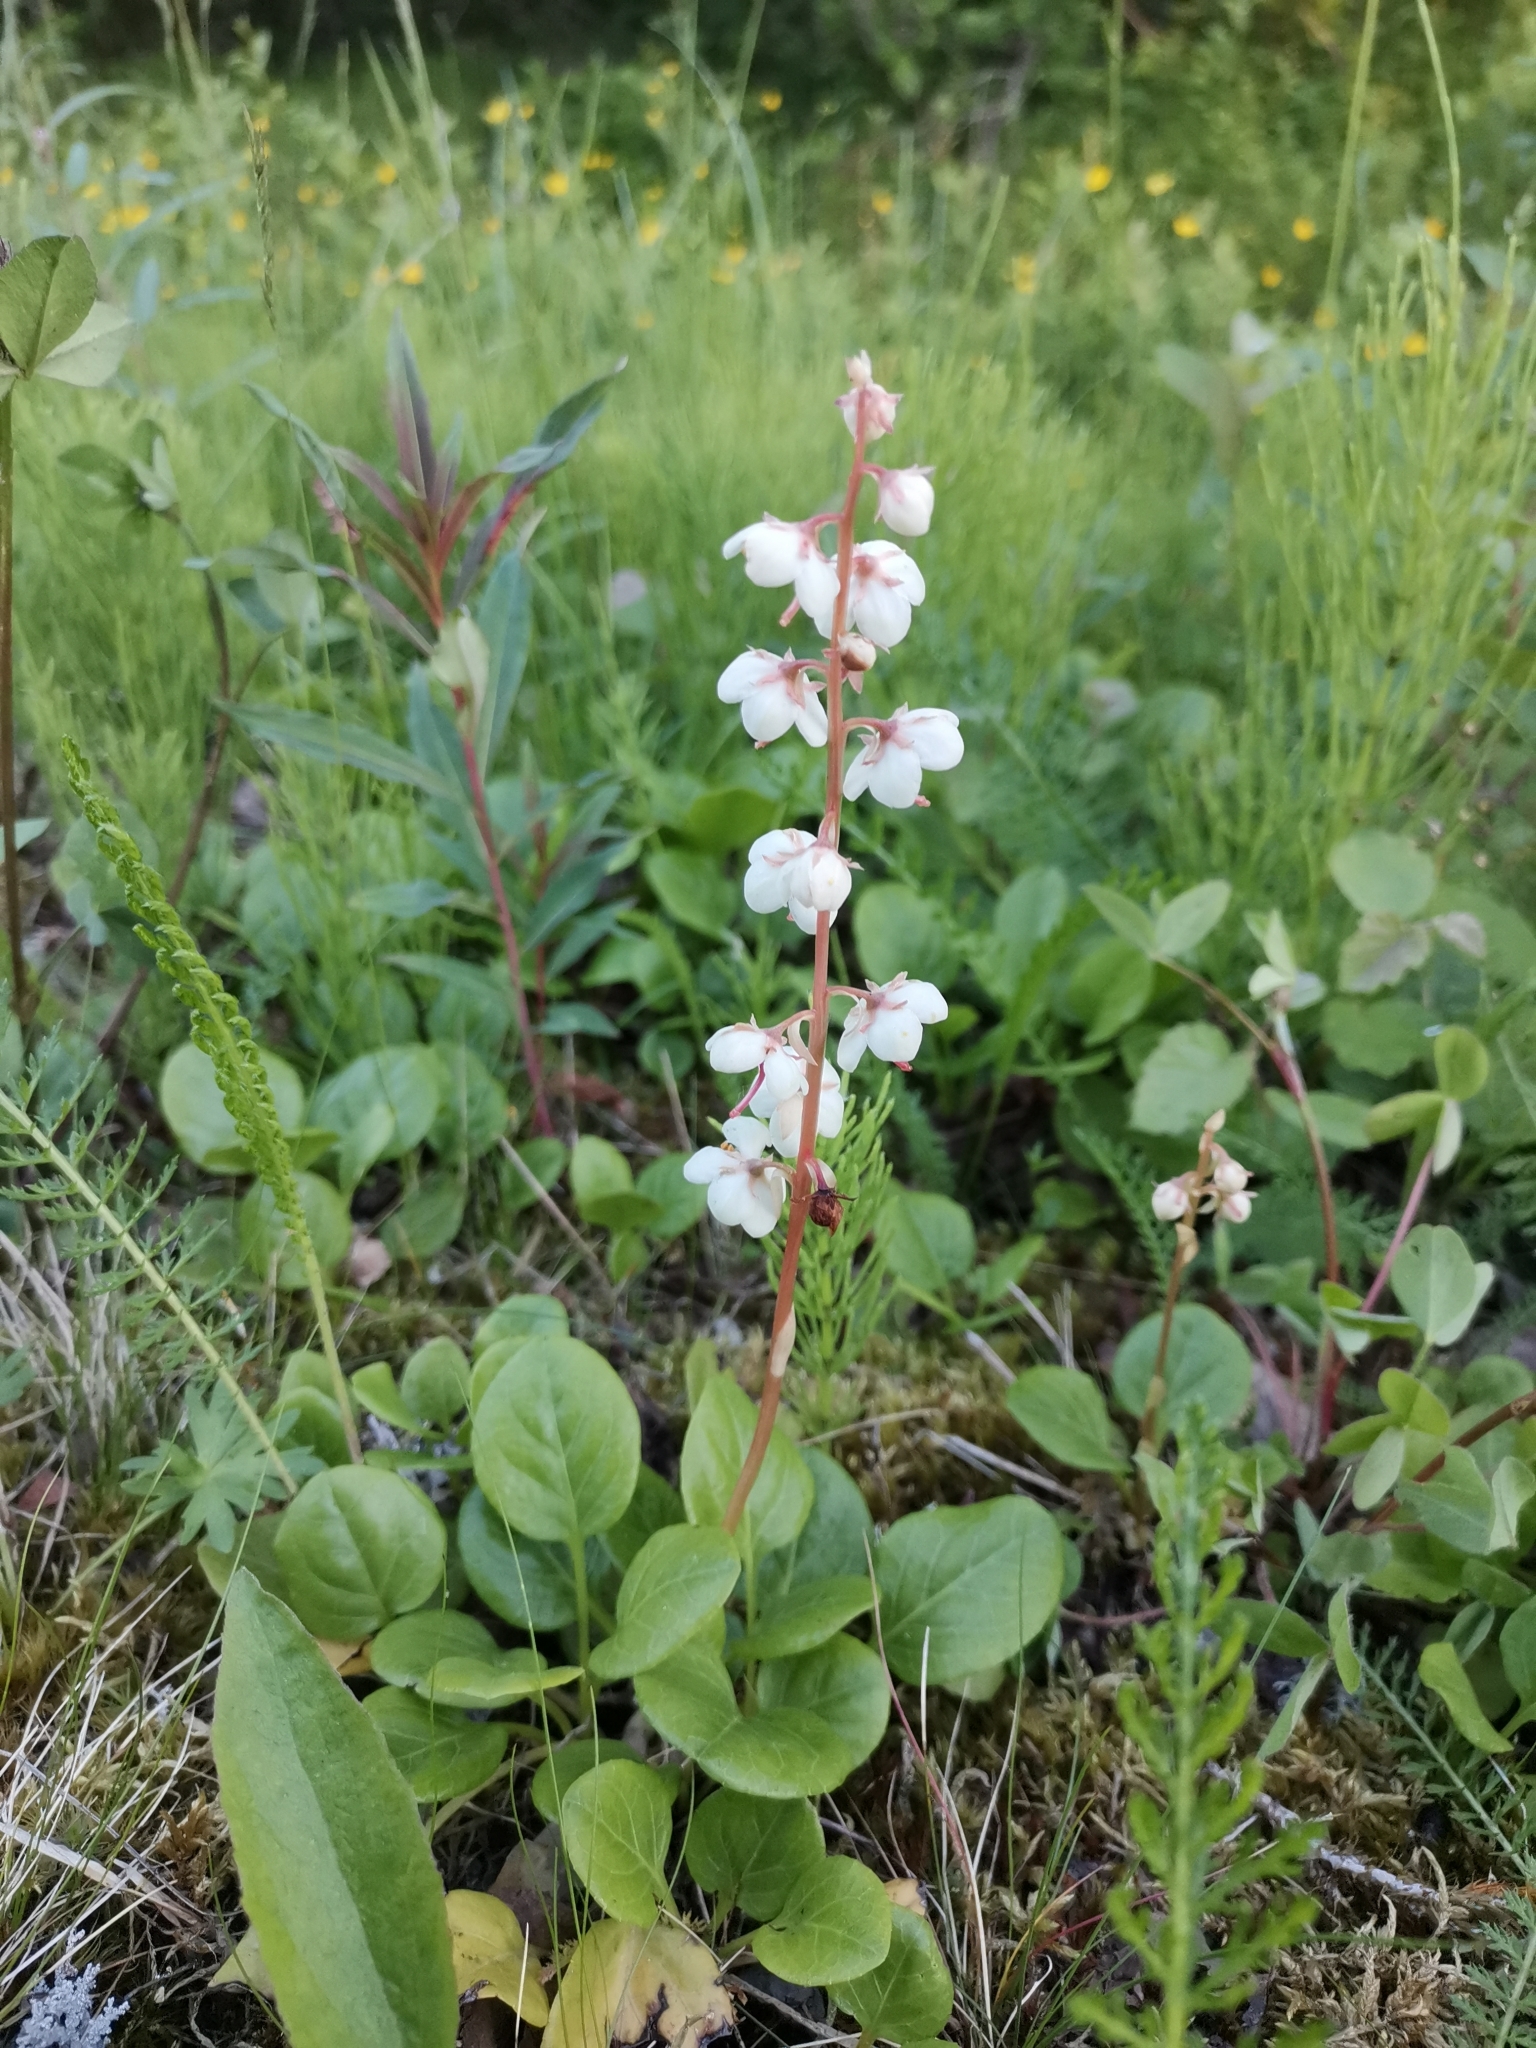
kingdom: Plantae
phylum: Tracheophyta
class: Magnoliopsida
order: Ericales
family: Ericaceae
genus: Pyrola
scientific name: Pyrola rotundifolia
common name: Round-leaved wintergreen
